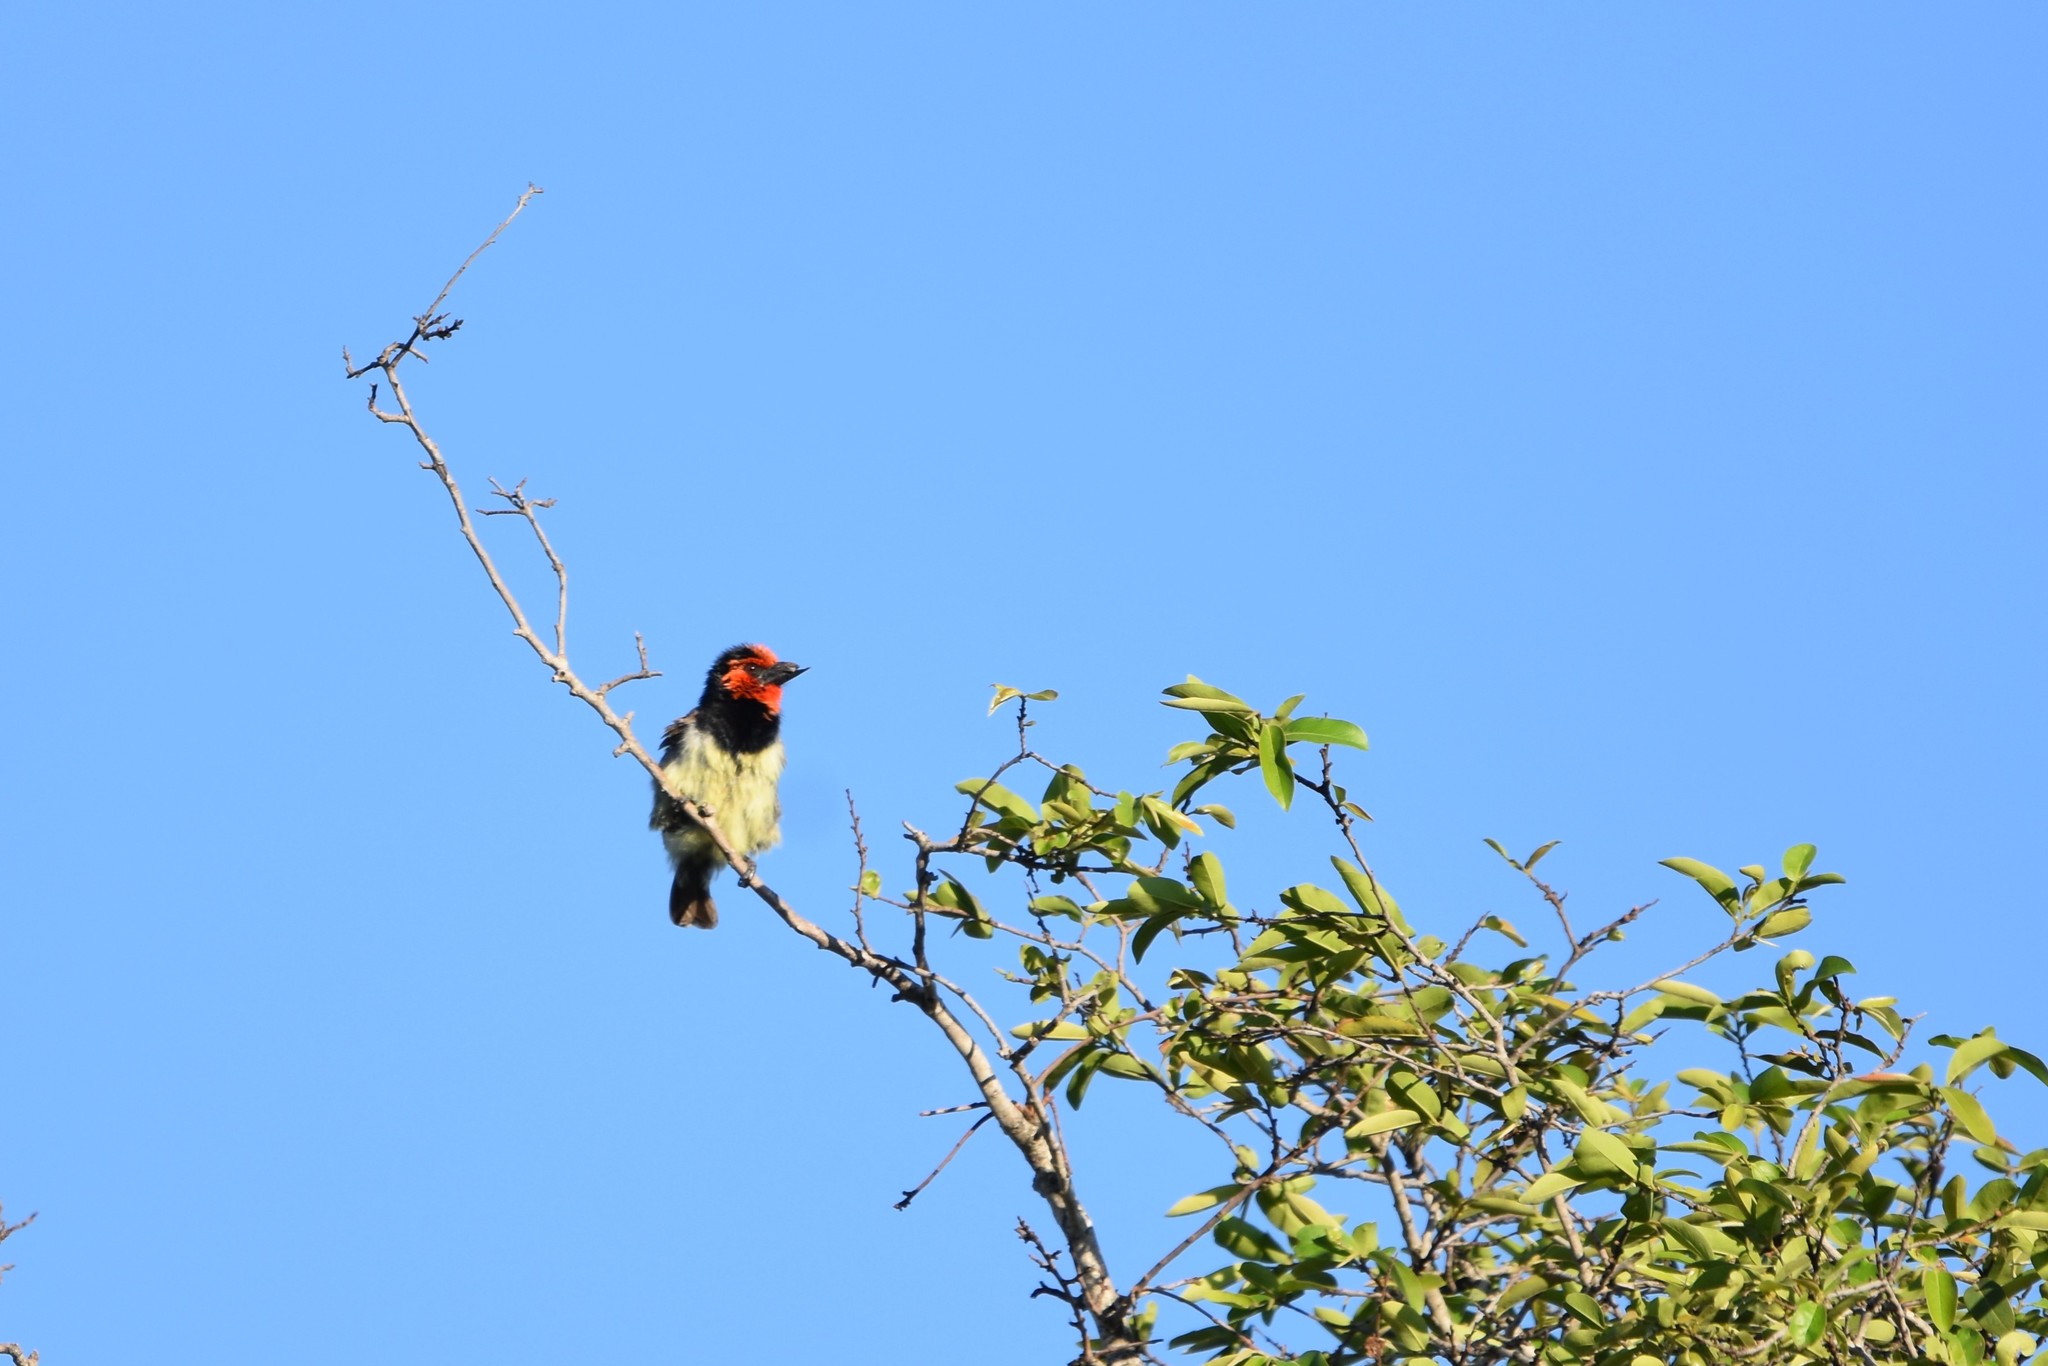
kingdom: Animalia
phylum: Chordata
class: Aves
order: Piciformes
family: Lybiidae
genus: Lybius
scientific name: Lybius torquatus
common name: Black-collared barbet
